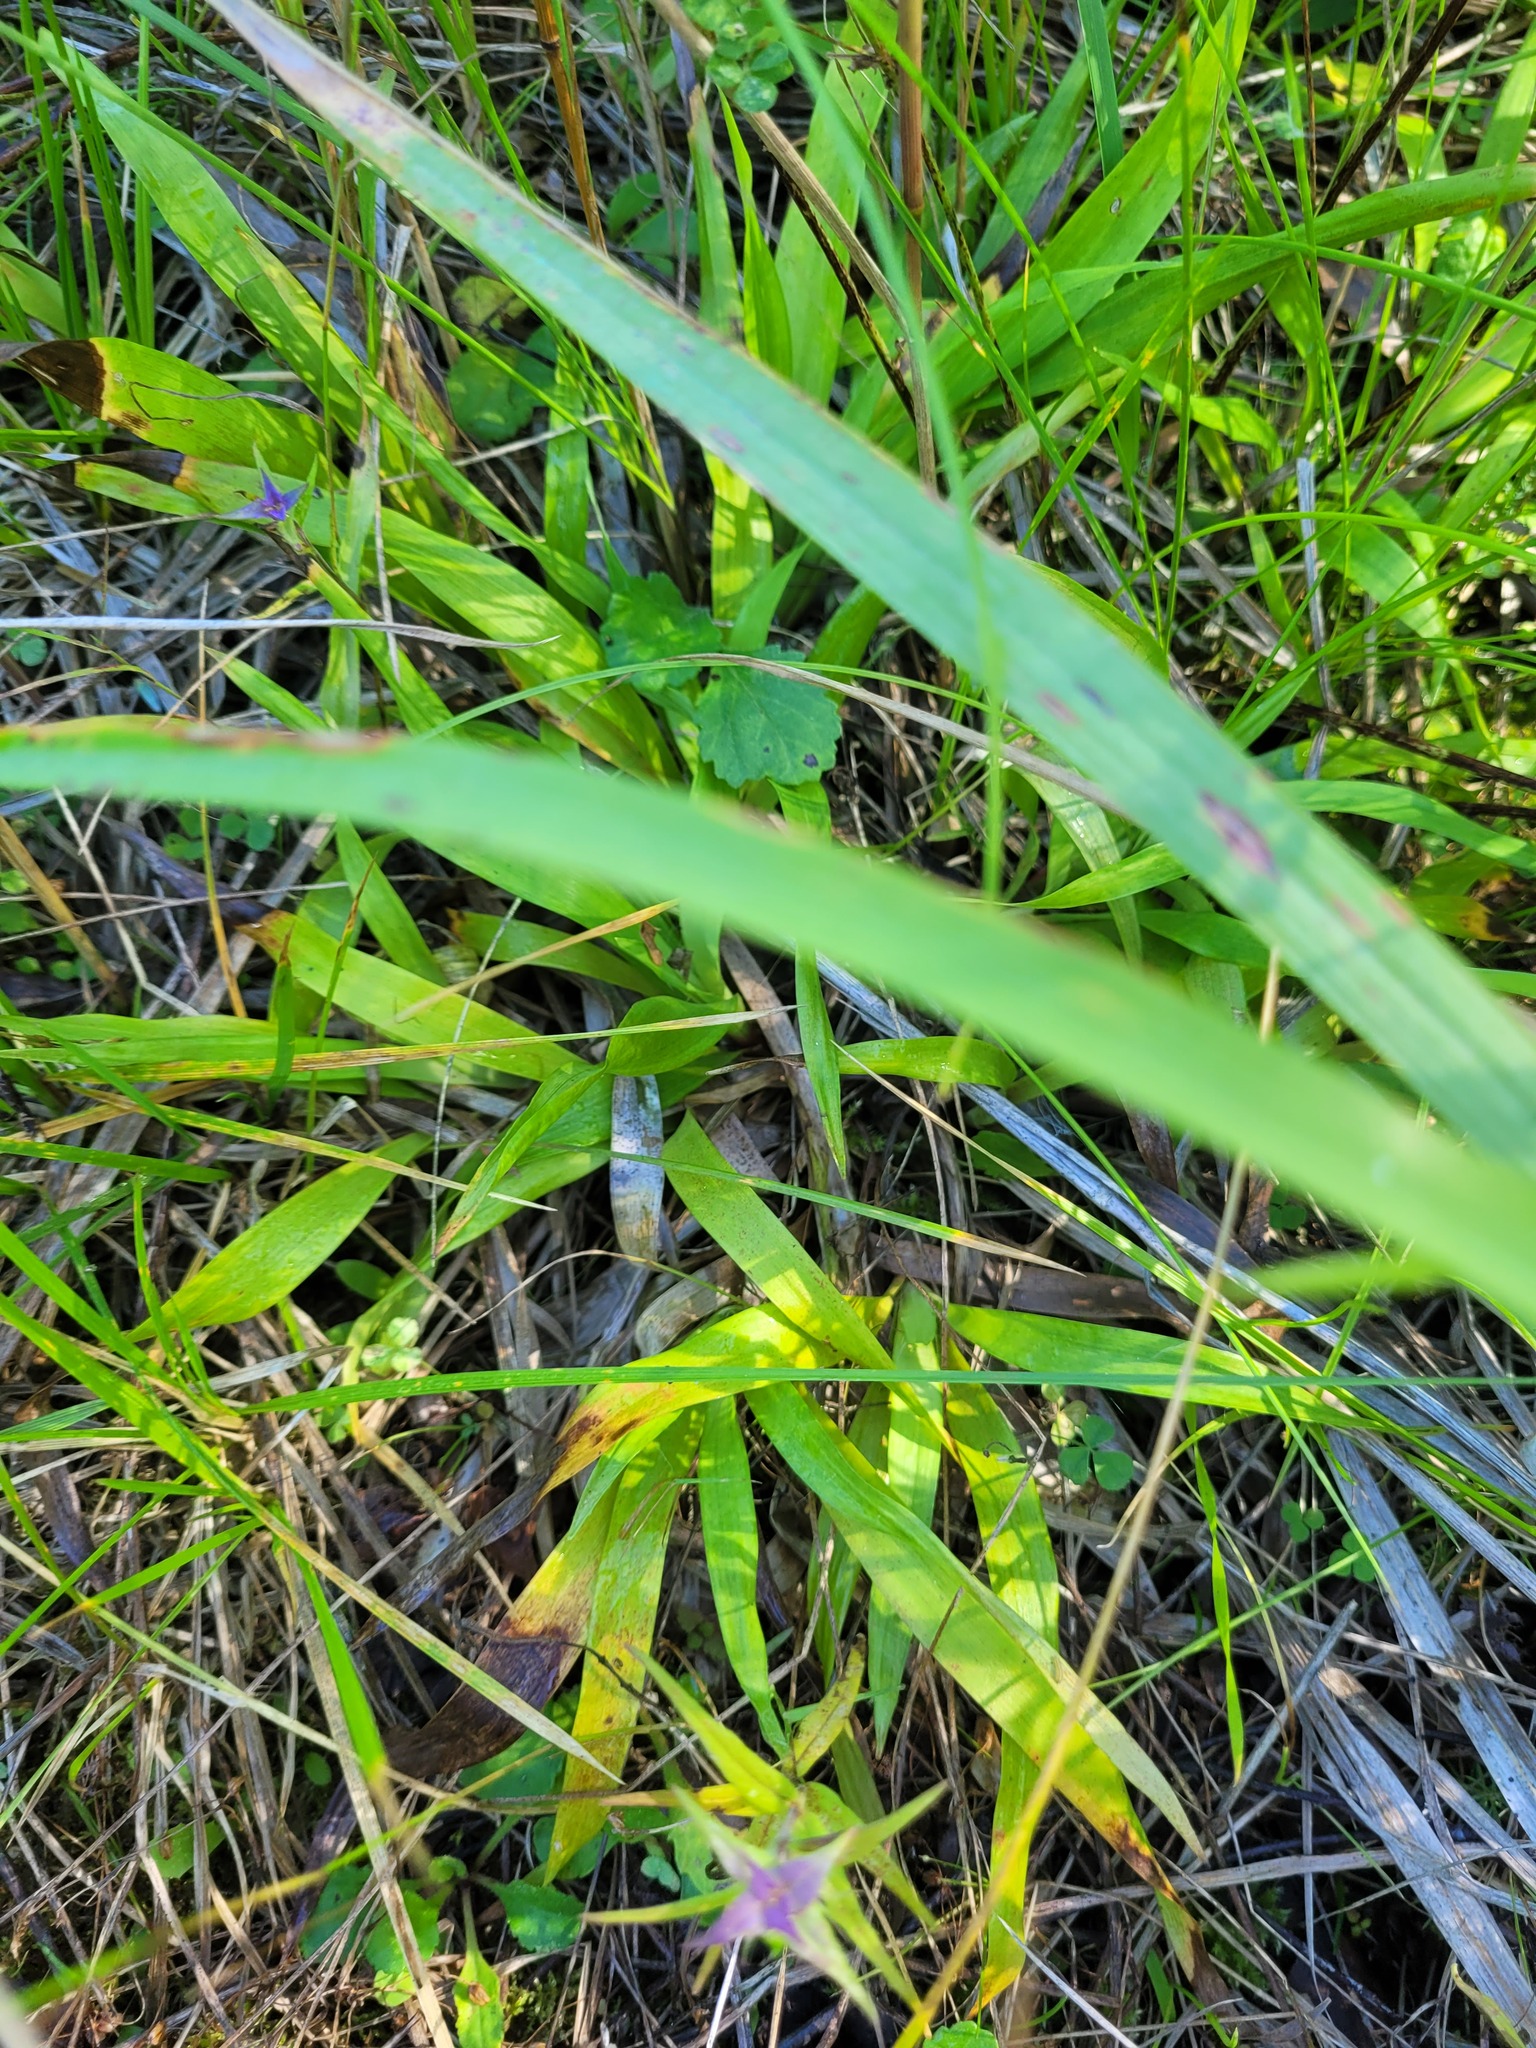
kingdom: Plantae
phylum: Tracheophyta
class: Liliopsida
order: Poales
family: Juncaceae
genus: Luzula
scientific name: Luzula pilosa
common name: Hairy wood-rush
